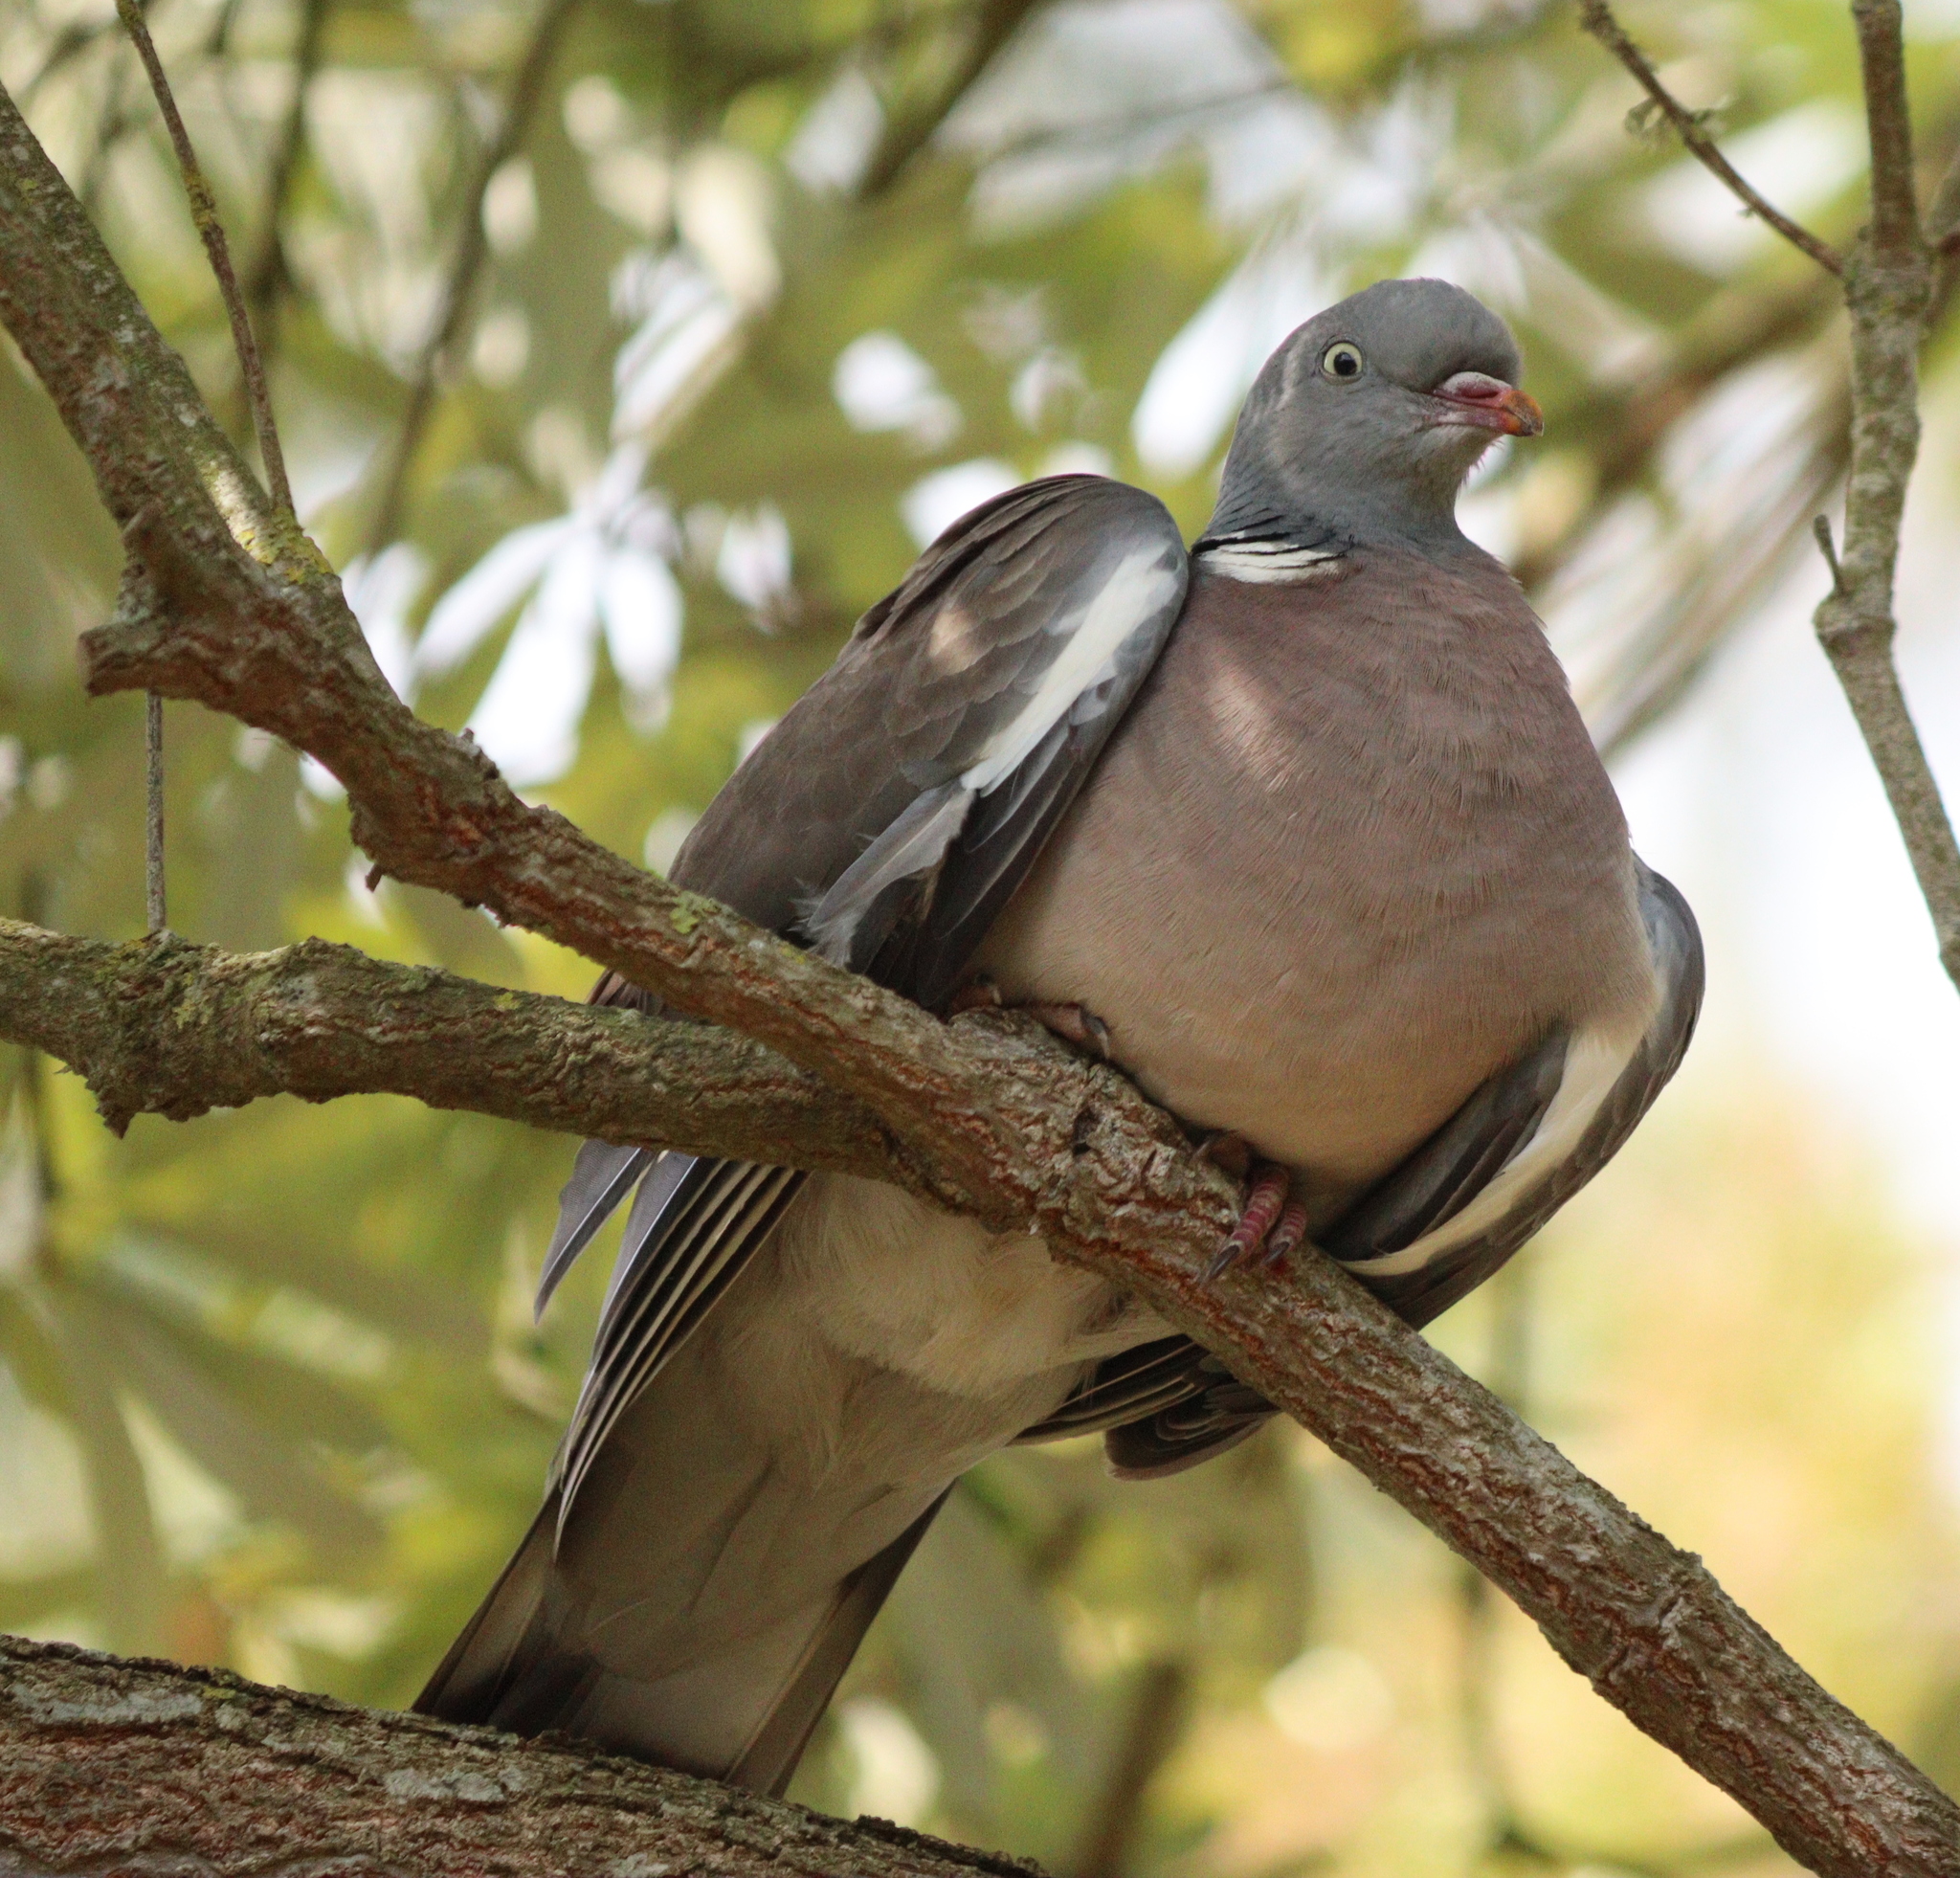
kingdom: Animalia
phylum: Chordata
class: Aves
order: Columbiformes
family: Columbidae
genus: Columba
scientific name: Columba palumbus
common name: Common wood pigeon
